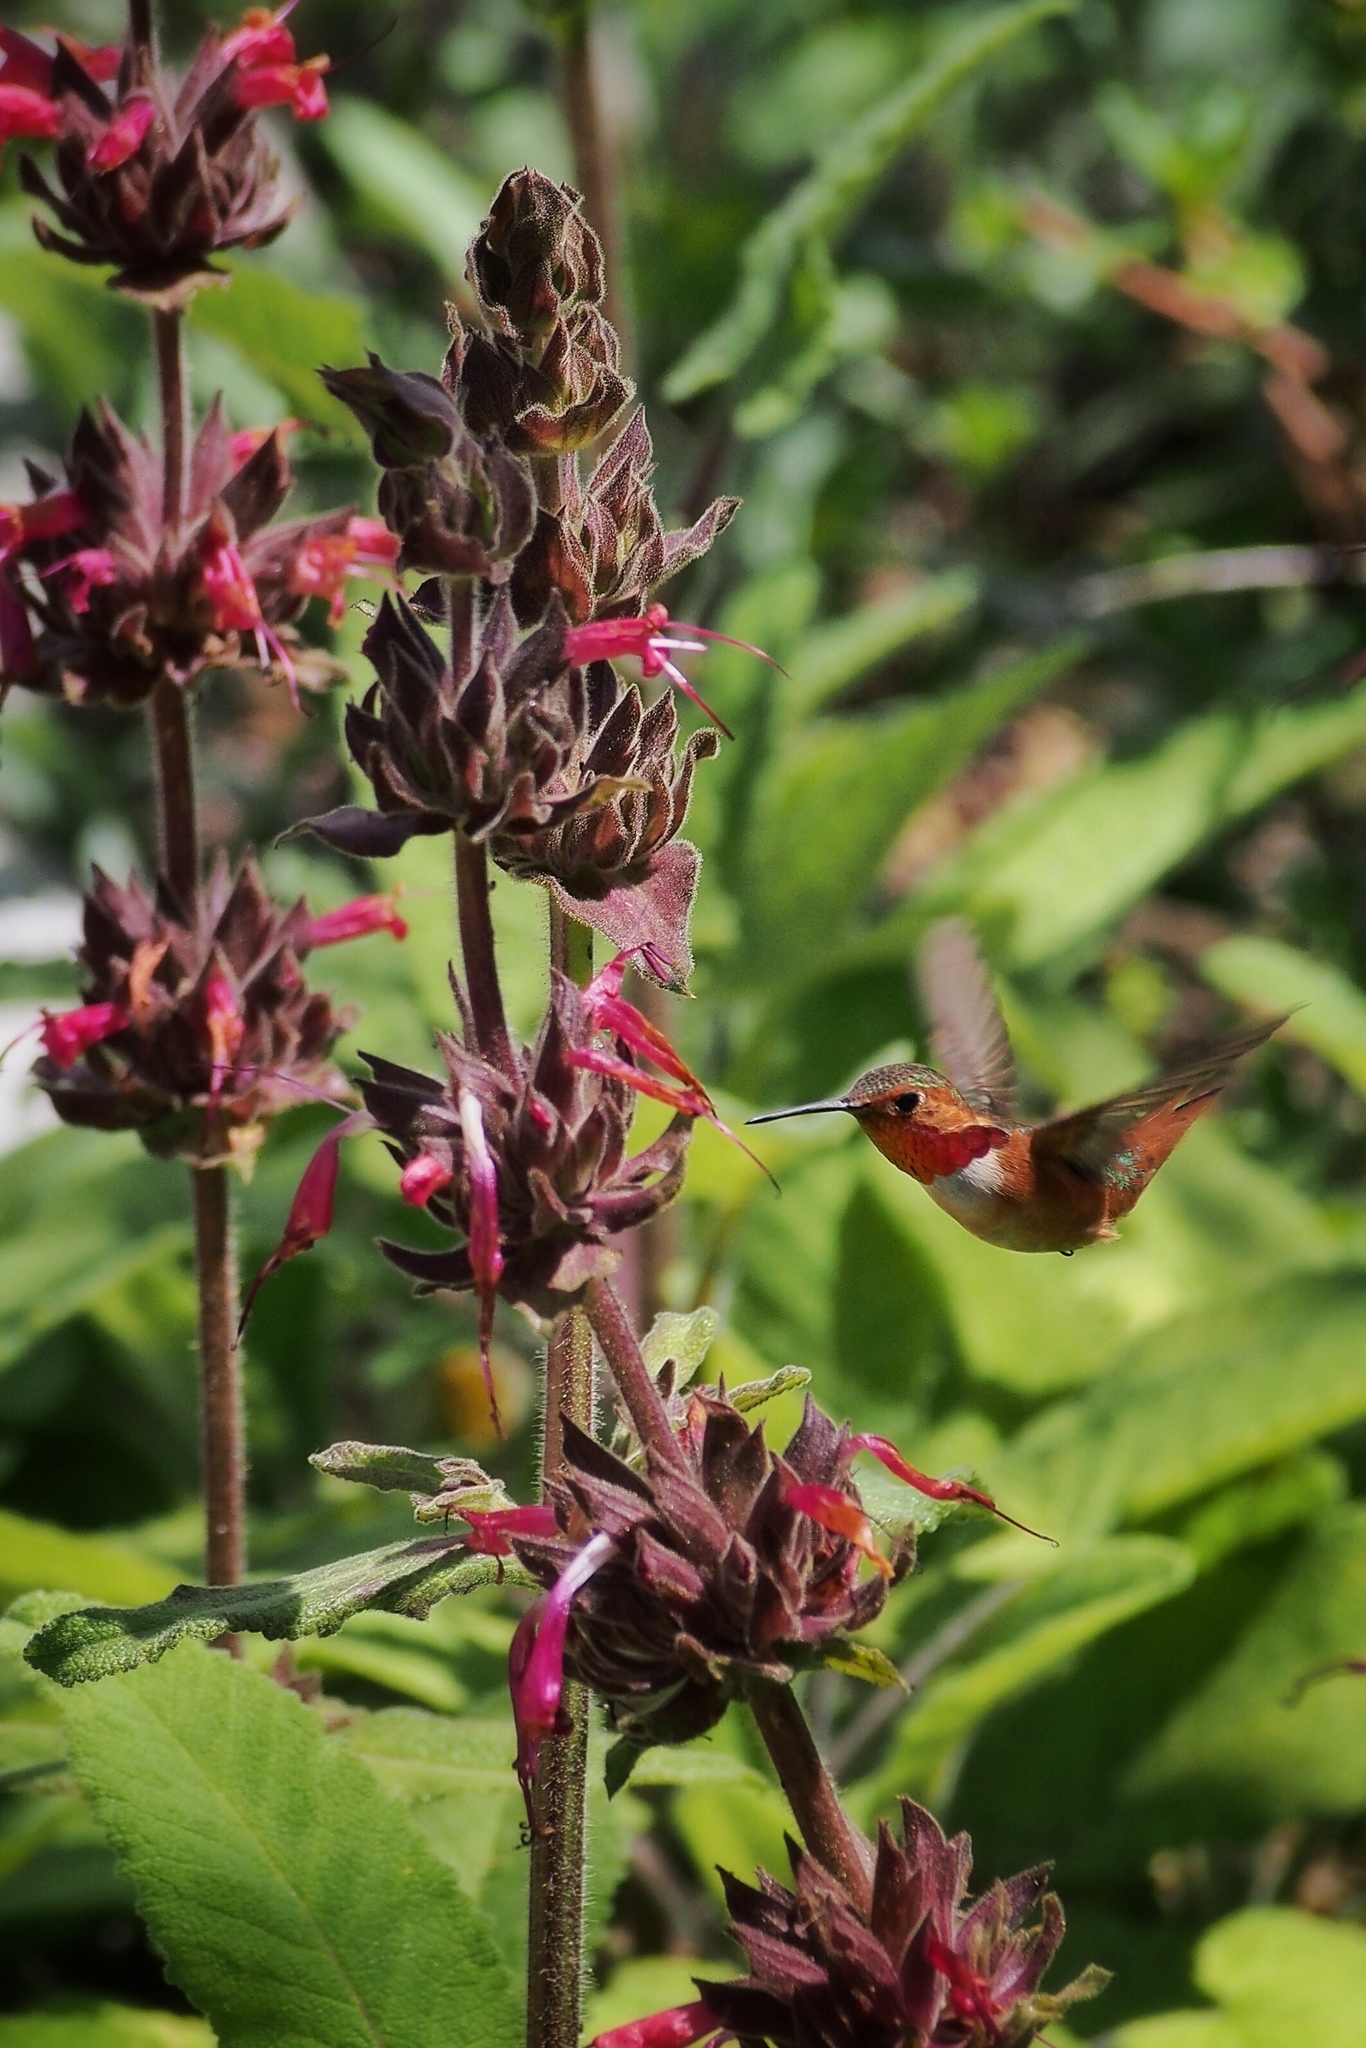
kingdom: Animalia
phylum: Chordata
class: Aves
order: Apodiformes
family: Trochilidae
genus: Selasphorus
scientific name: Selasphorus sasin
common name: Allen's hummingbird
